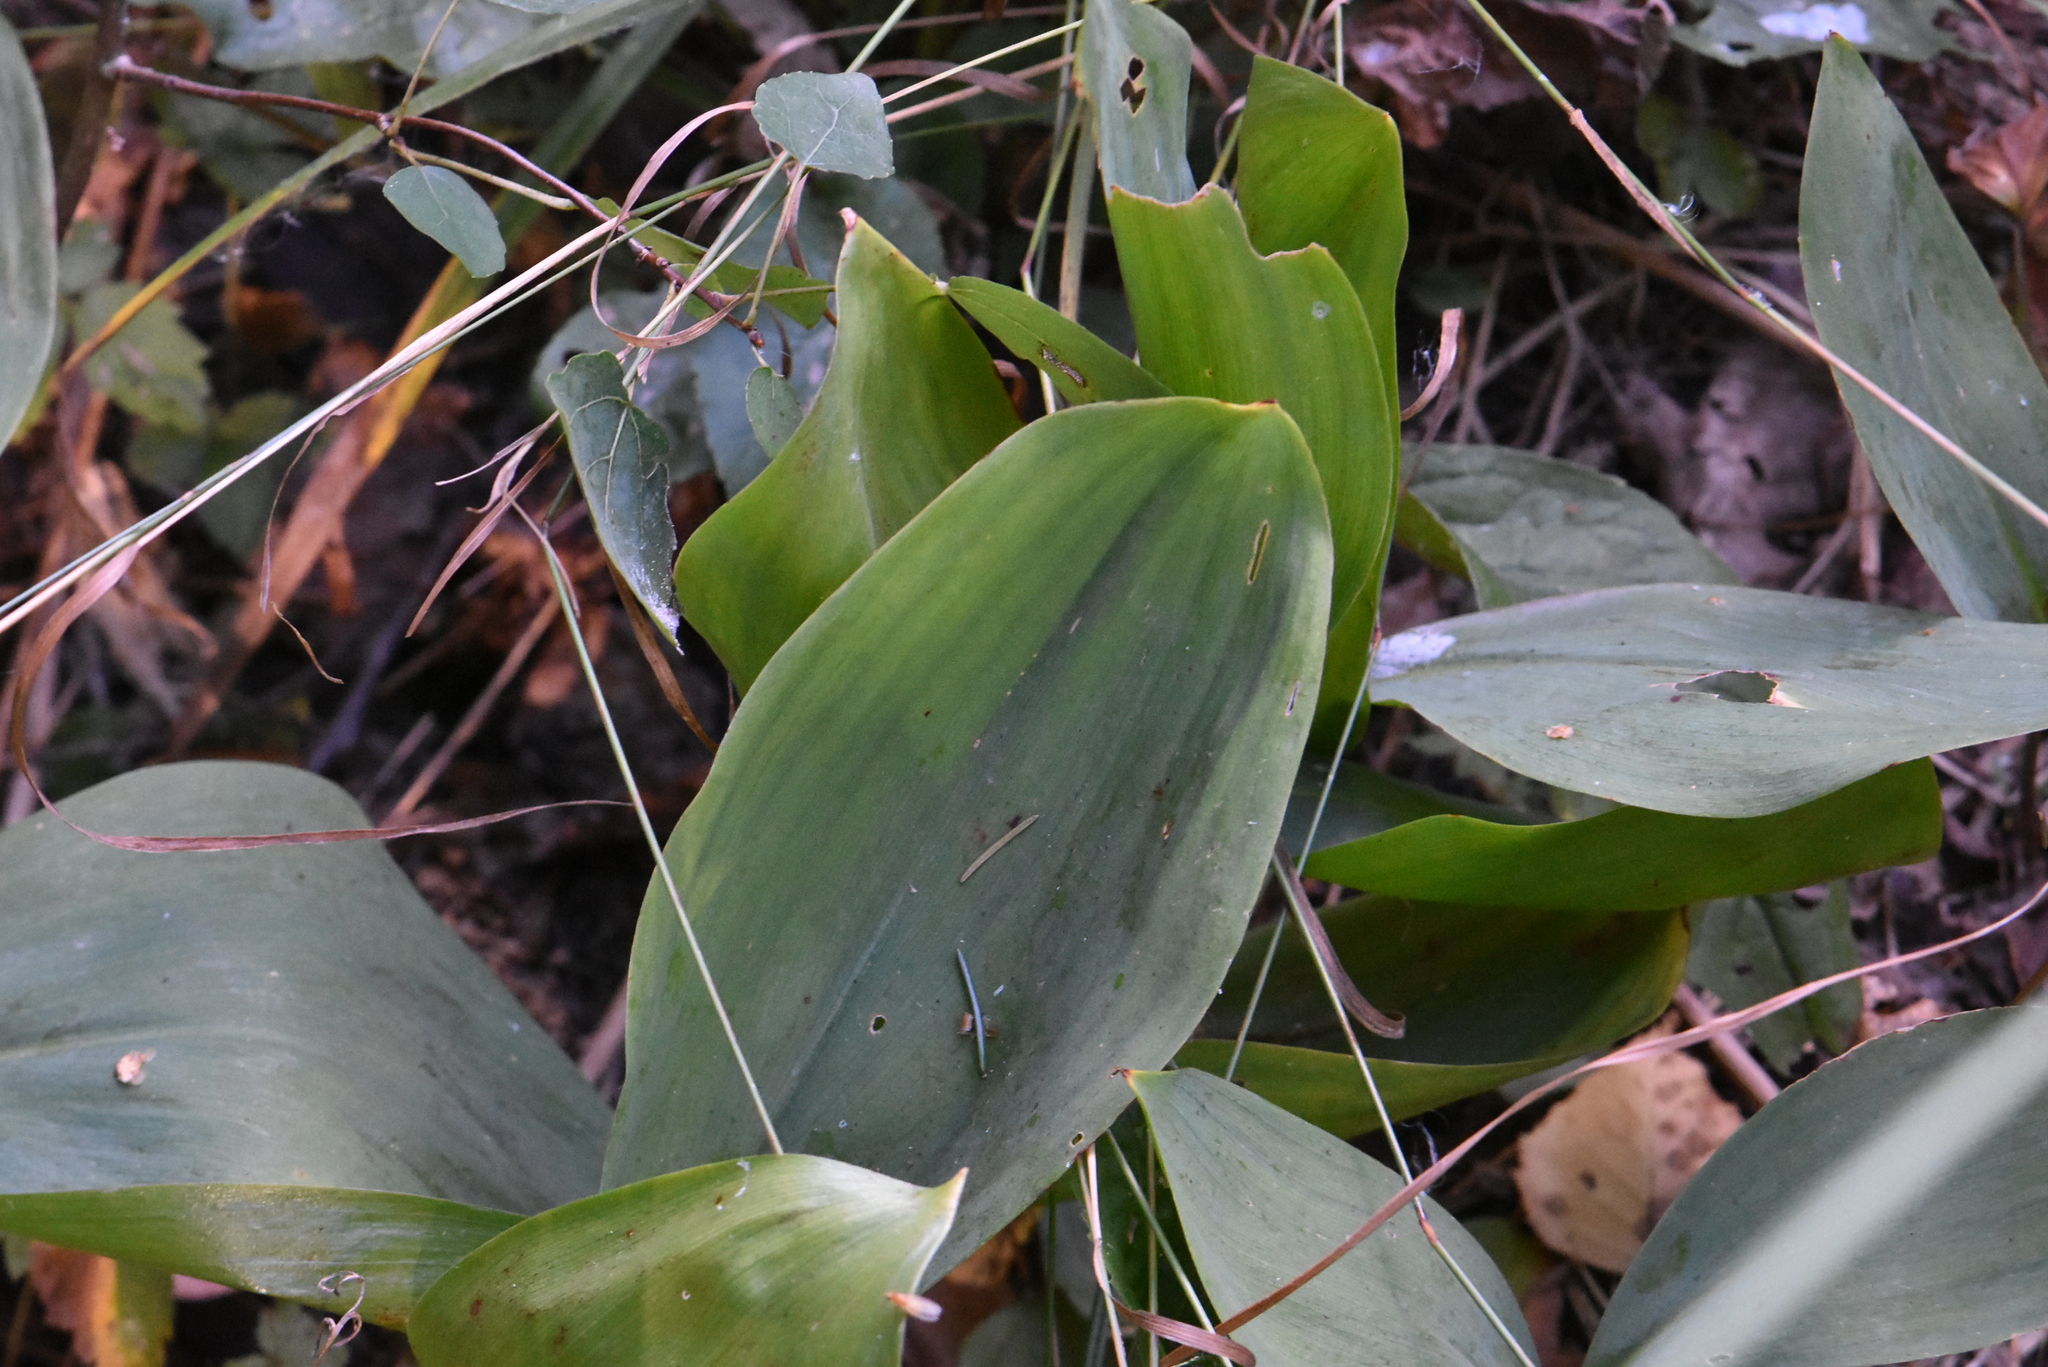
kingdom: Plantae
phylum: Tracheophyta
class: Liliopsida
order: Asparagales
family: Asparagaceae
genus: Convallaria
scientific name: Convallaria majalis
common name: Lily-of-the-valley
